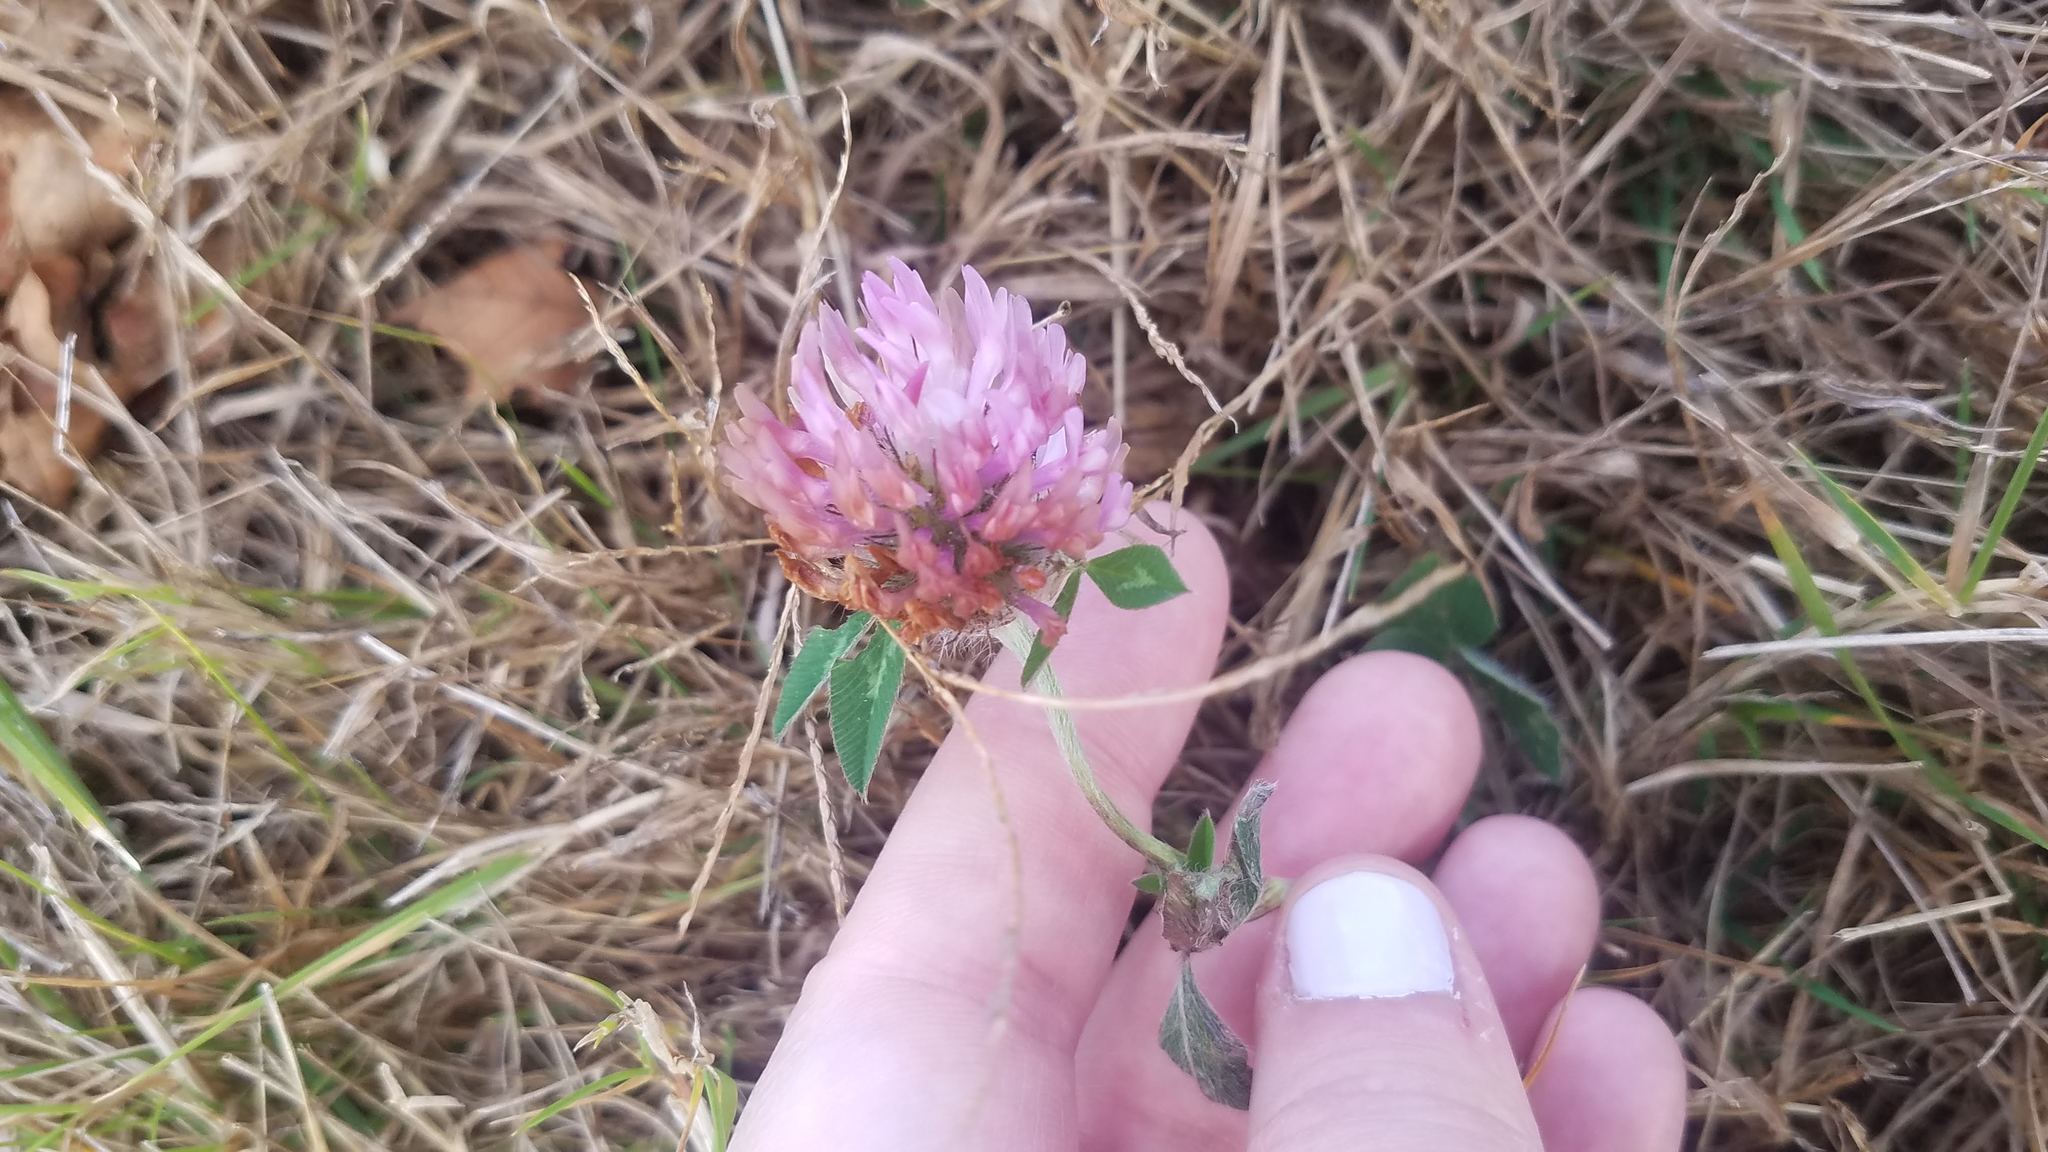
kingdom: Plantae
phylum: Tracheophyta
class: Magnoliopsida
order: Fabales
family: Fabaceae
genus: Trifolium
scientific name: Trifolium pratense
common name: Red clover
